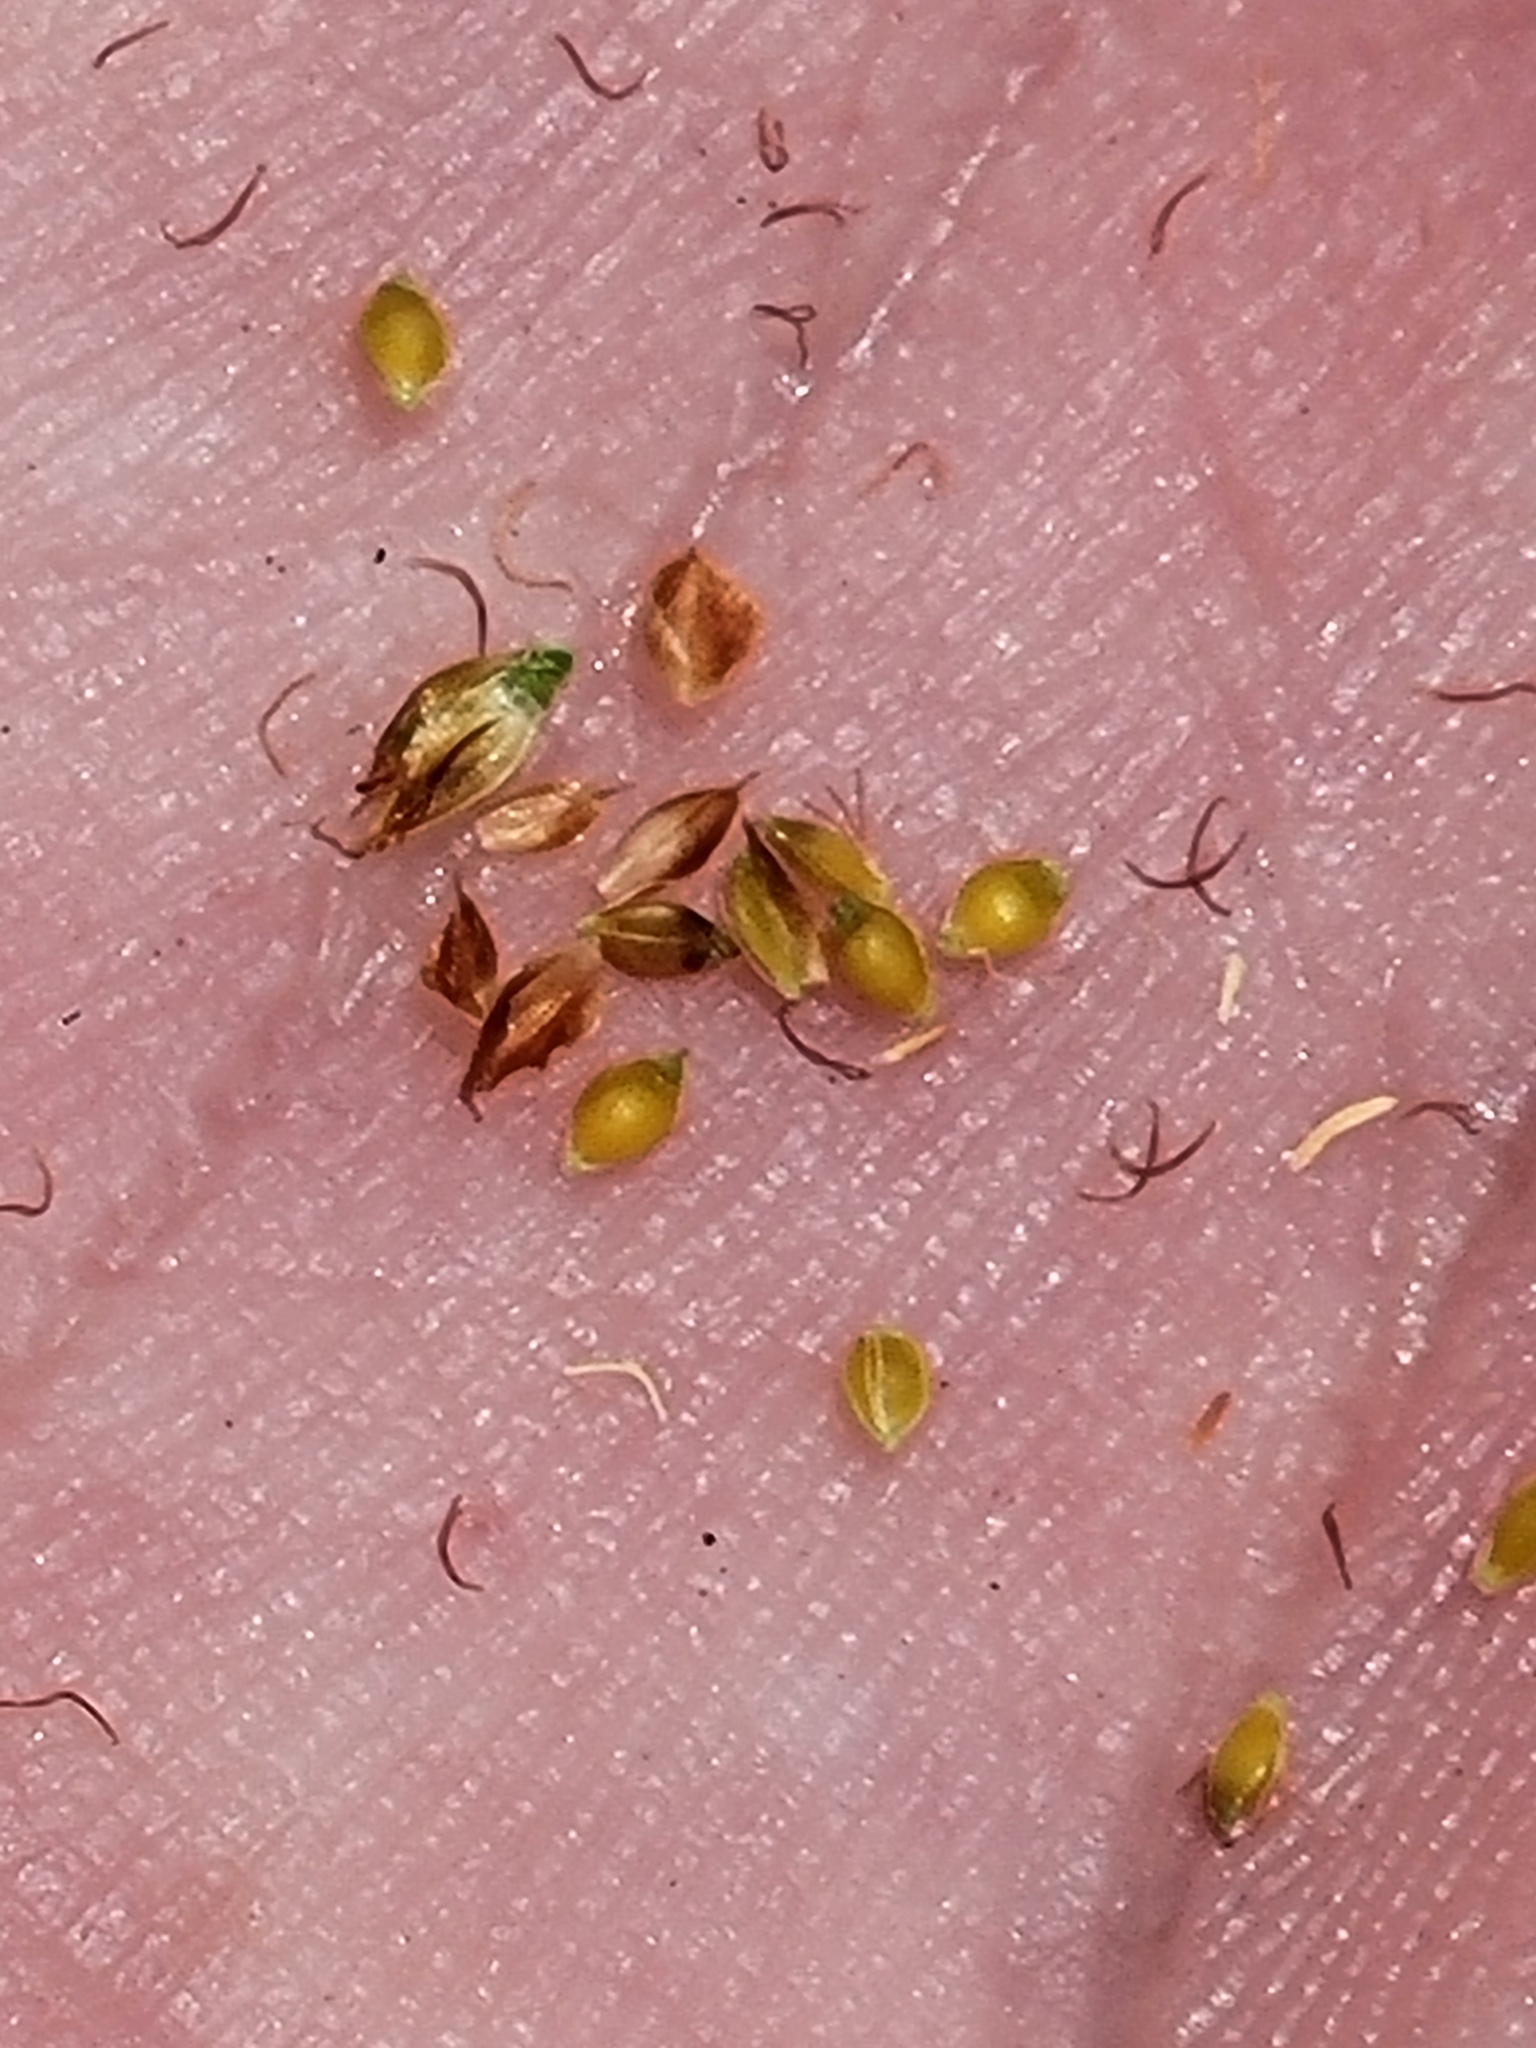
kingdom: Plantae
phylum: Tracheophyta
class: Liliopsida
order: Poales
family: Cyperaceae
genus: Rhynchospora
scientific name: Rhynchospora fernaldii
